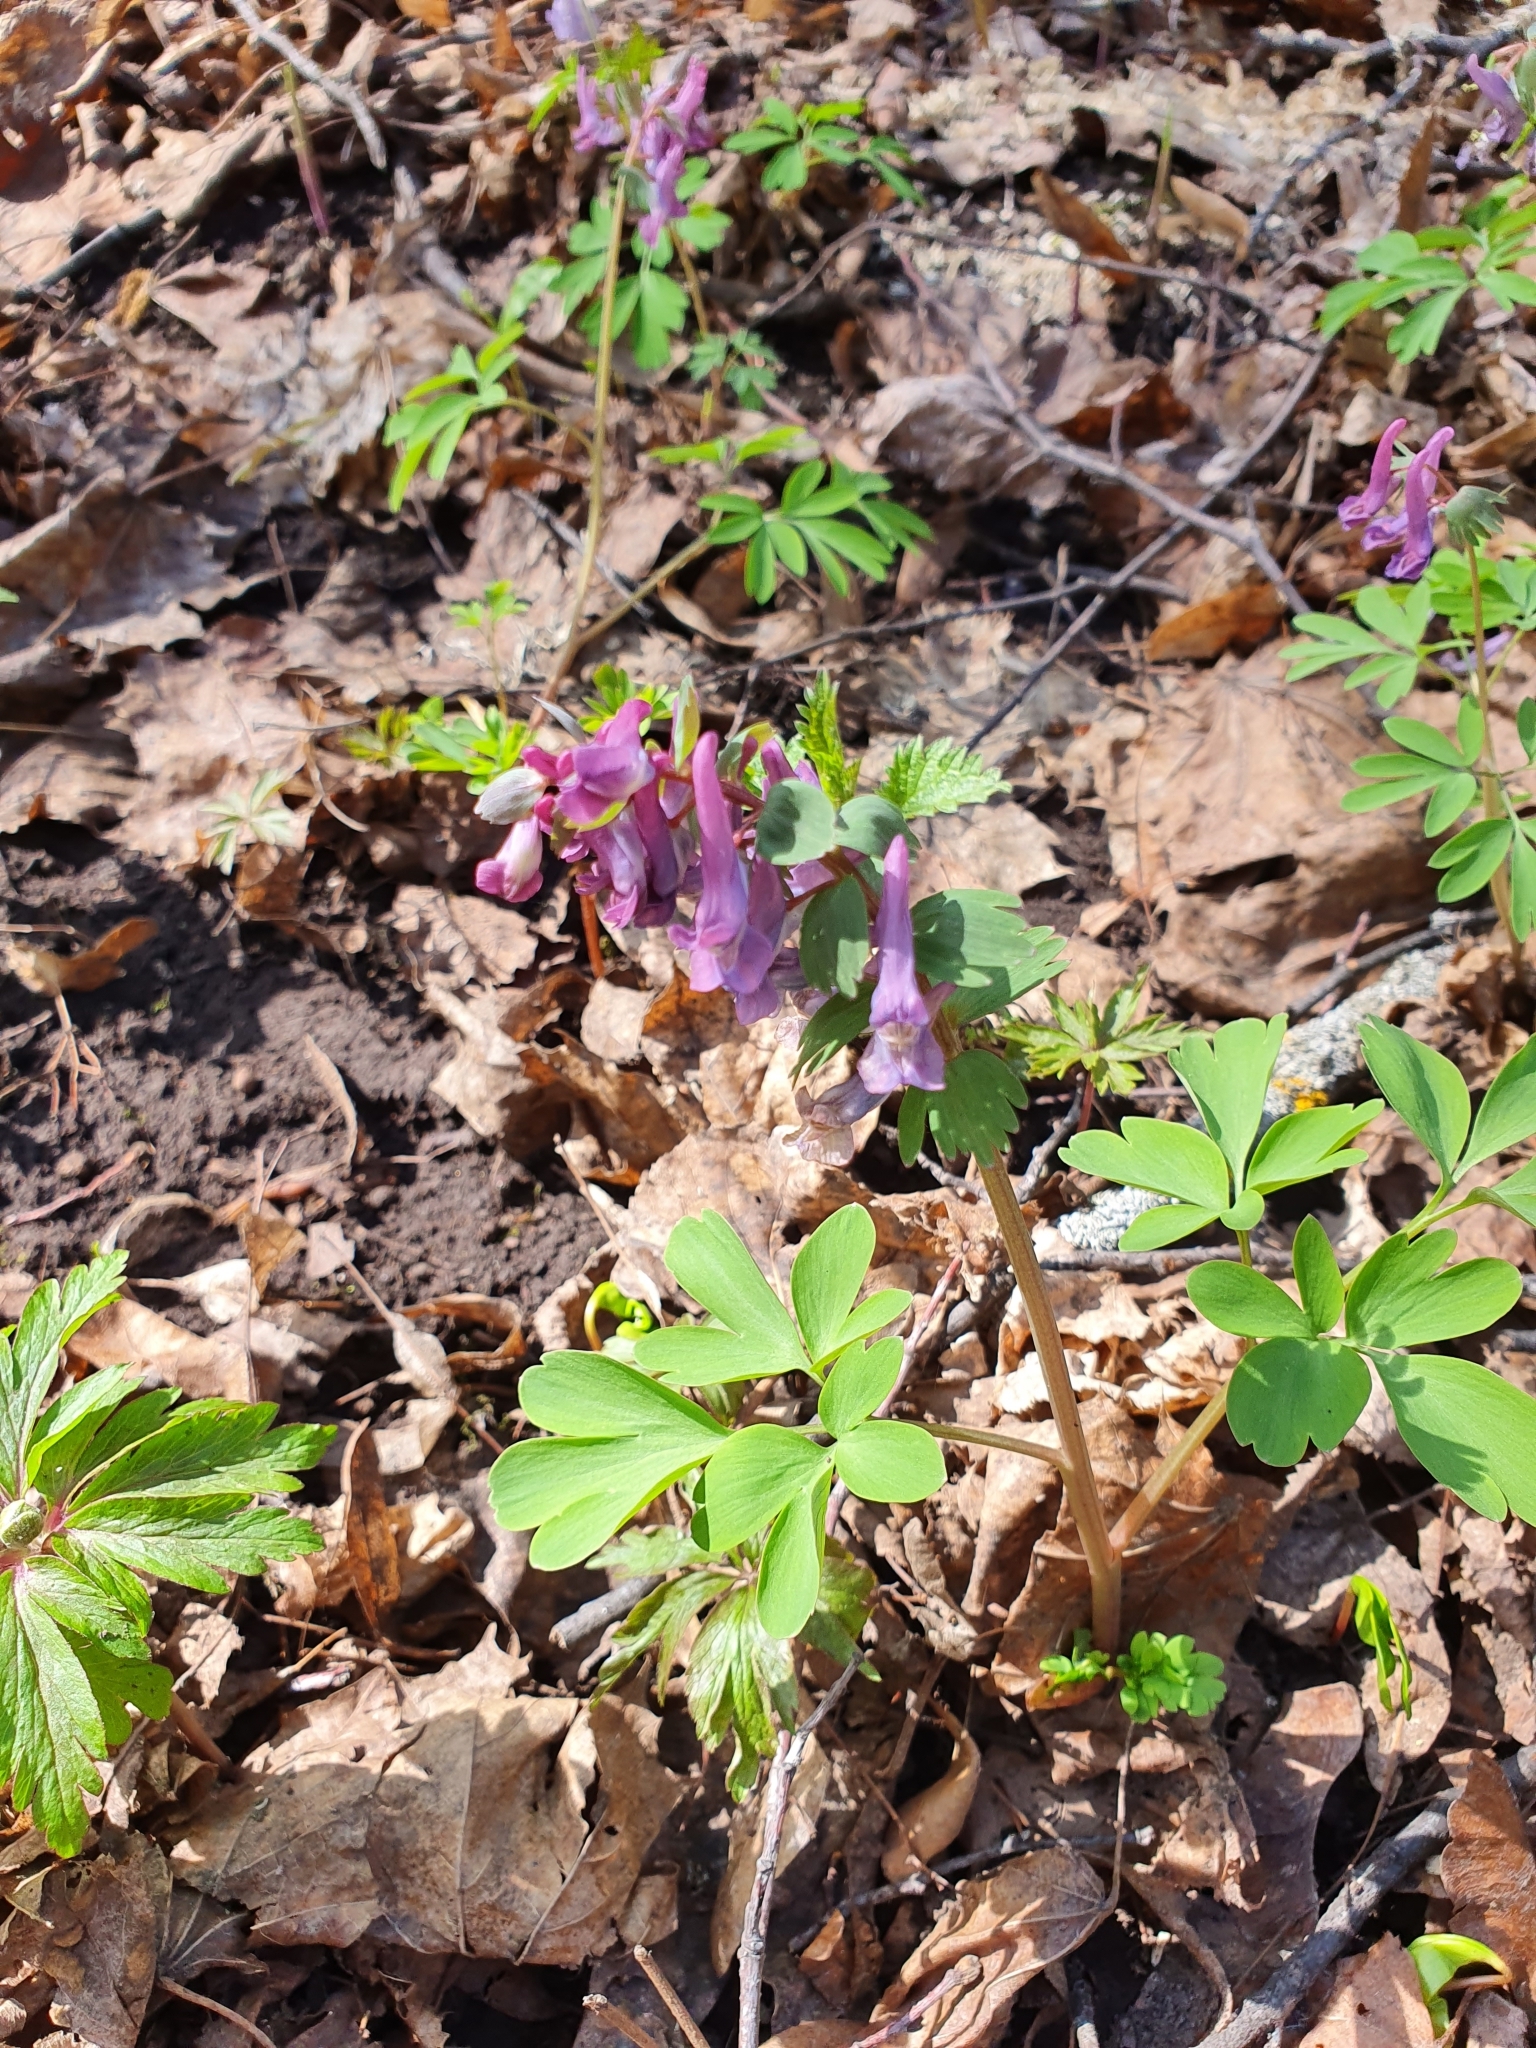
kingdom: Plantae
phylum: Tracheophyta
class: Magnoliopsida
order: Ranunculales
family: Papaveraceae
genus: Corydalis
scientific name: Corydalis solida
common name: Bird-in-a-bush
